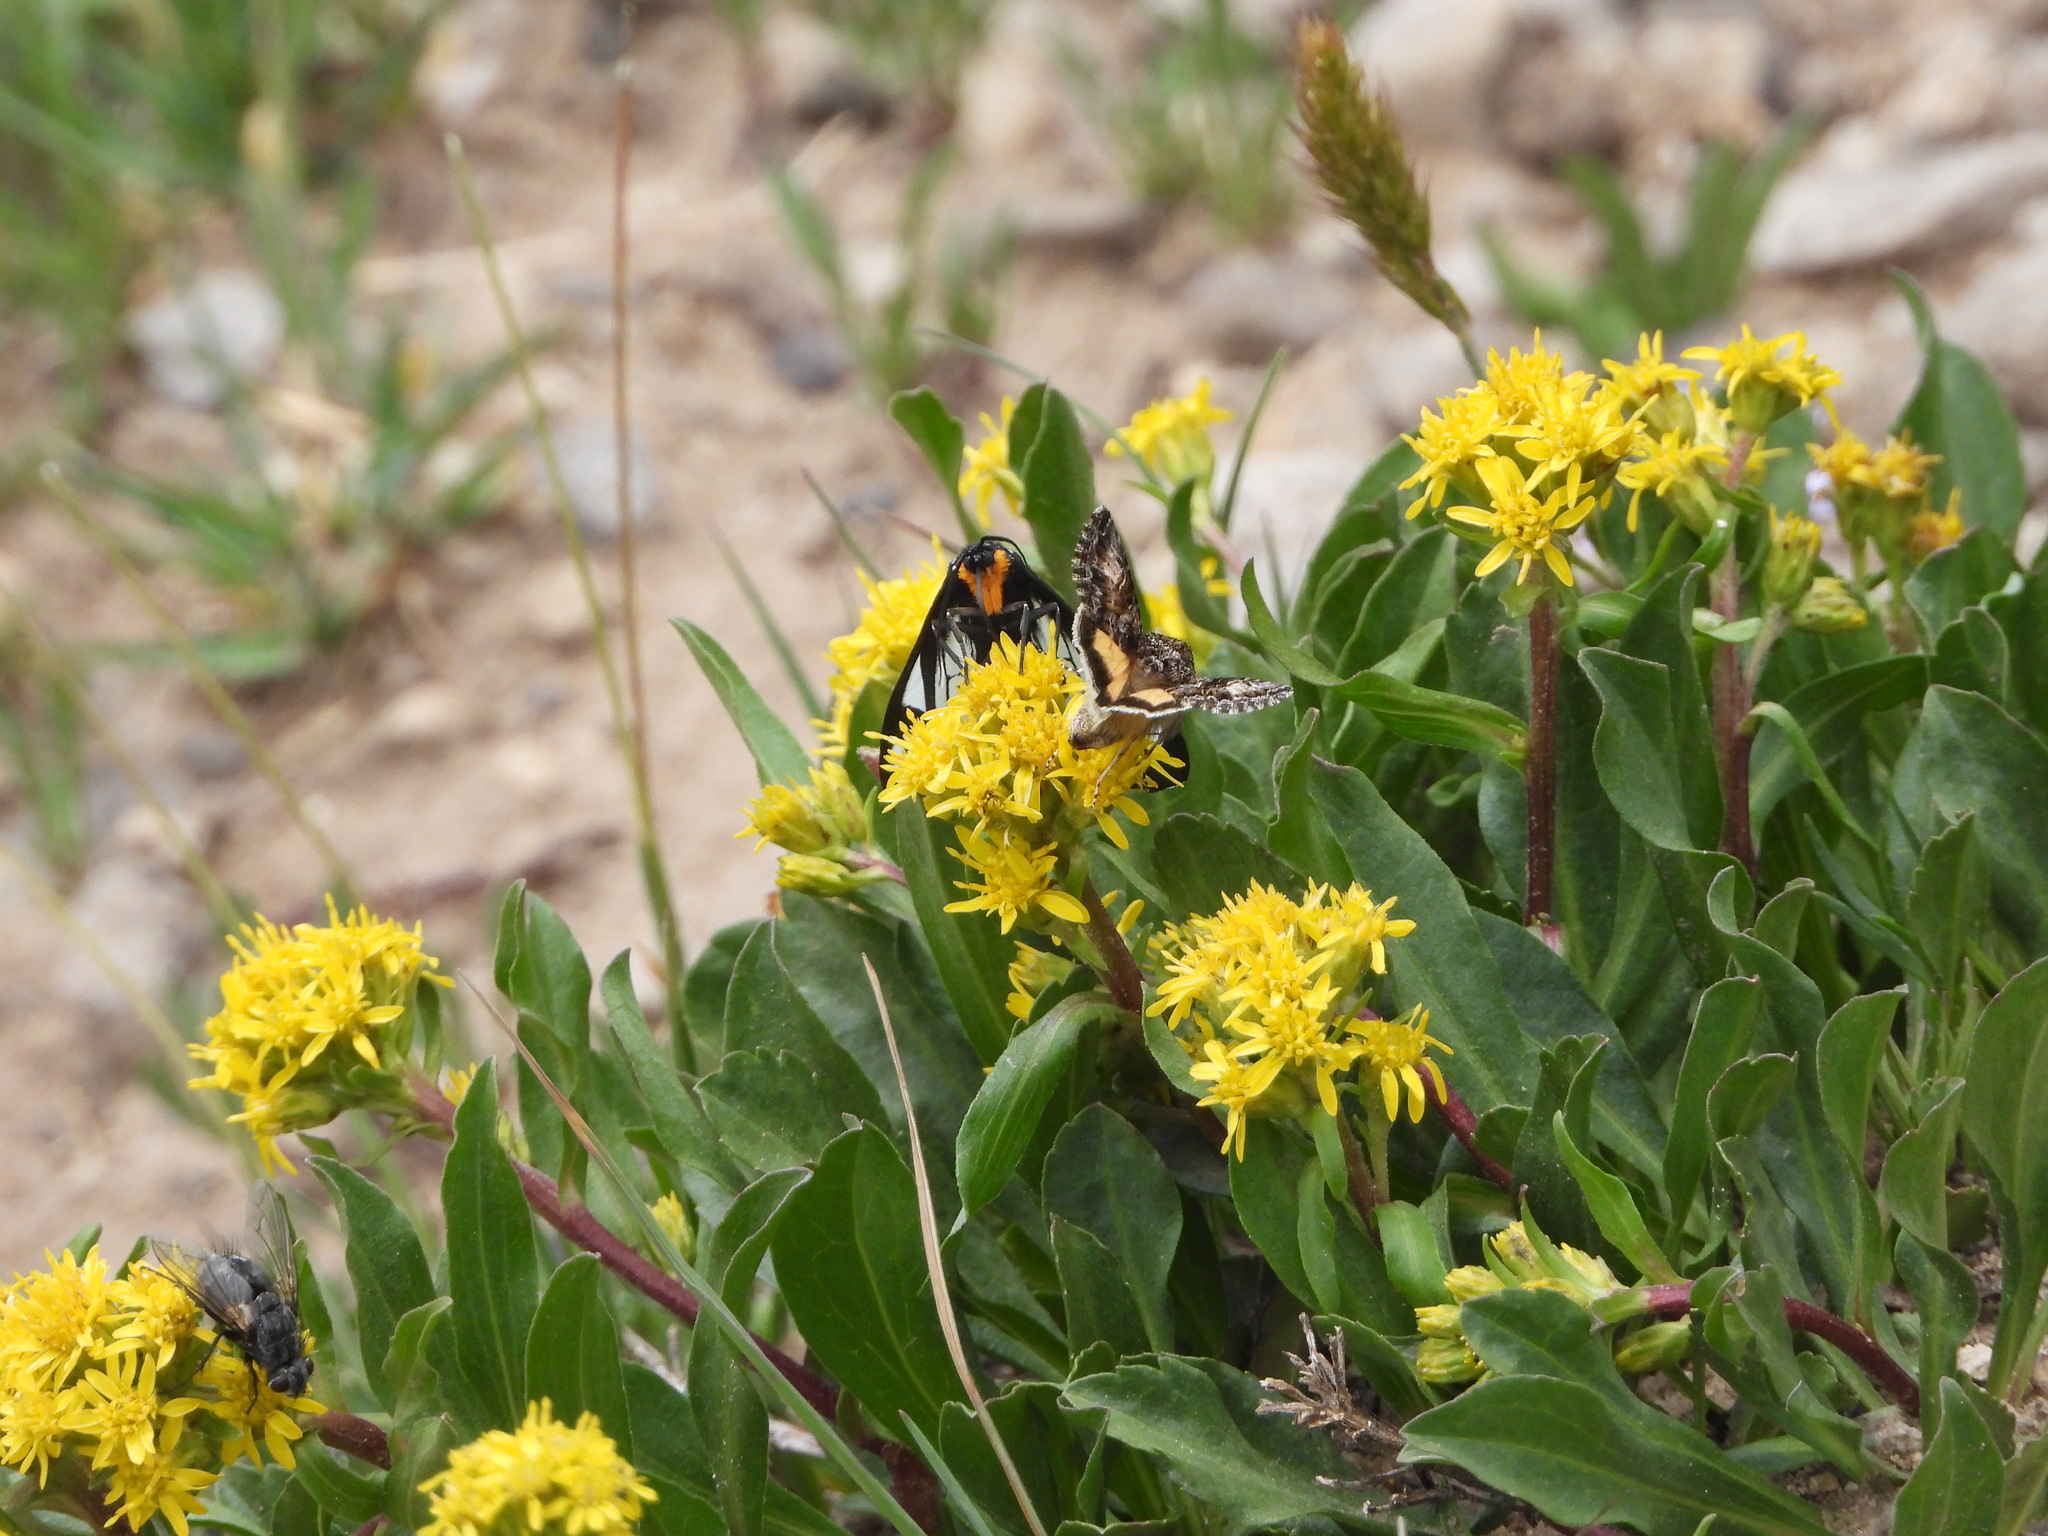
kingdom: Animalia
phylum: Arthropoda
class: Insecta
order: Lepidoptera
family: Erebidae
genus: Gnophaela
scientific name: Gnophaela vermiculata
